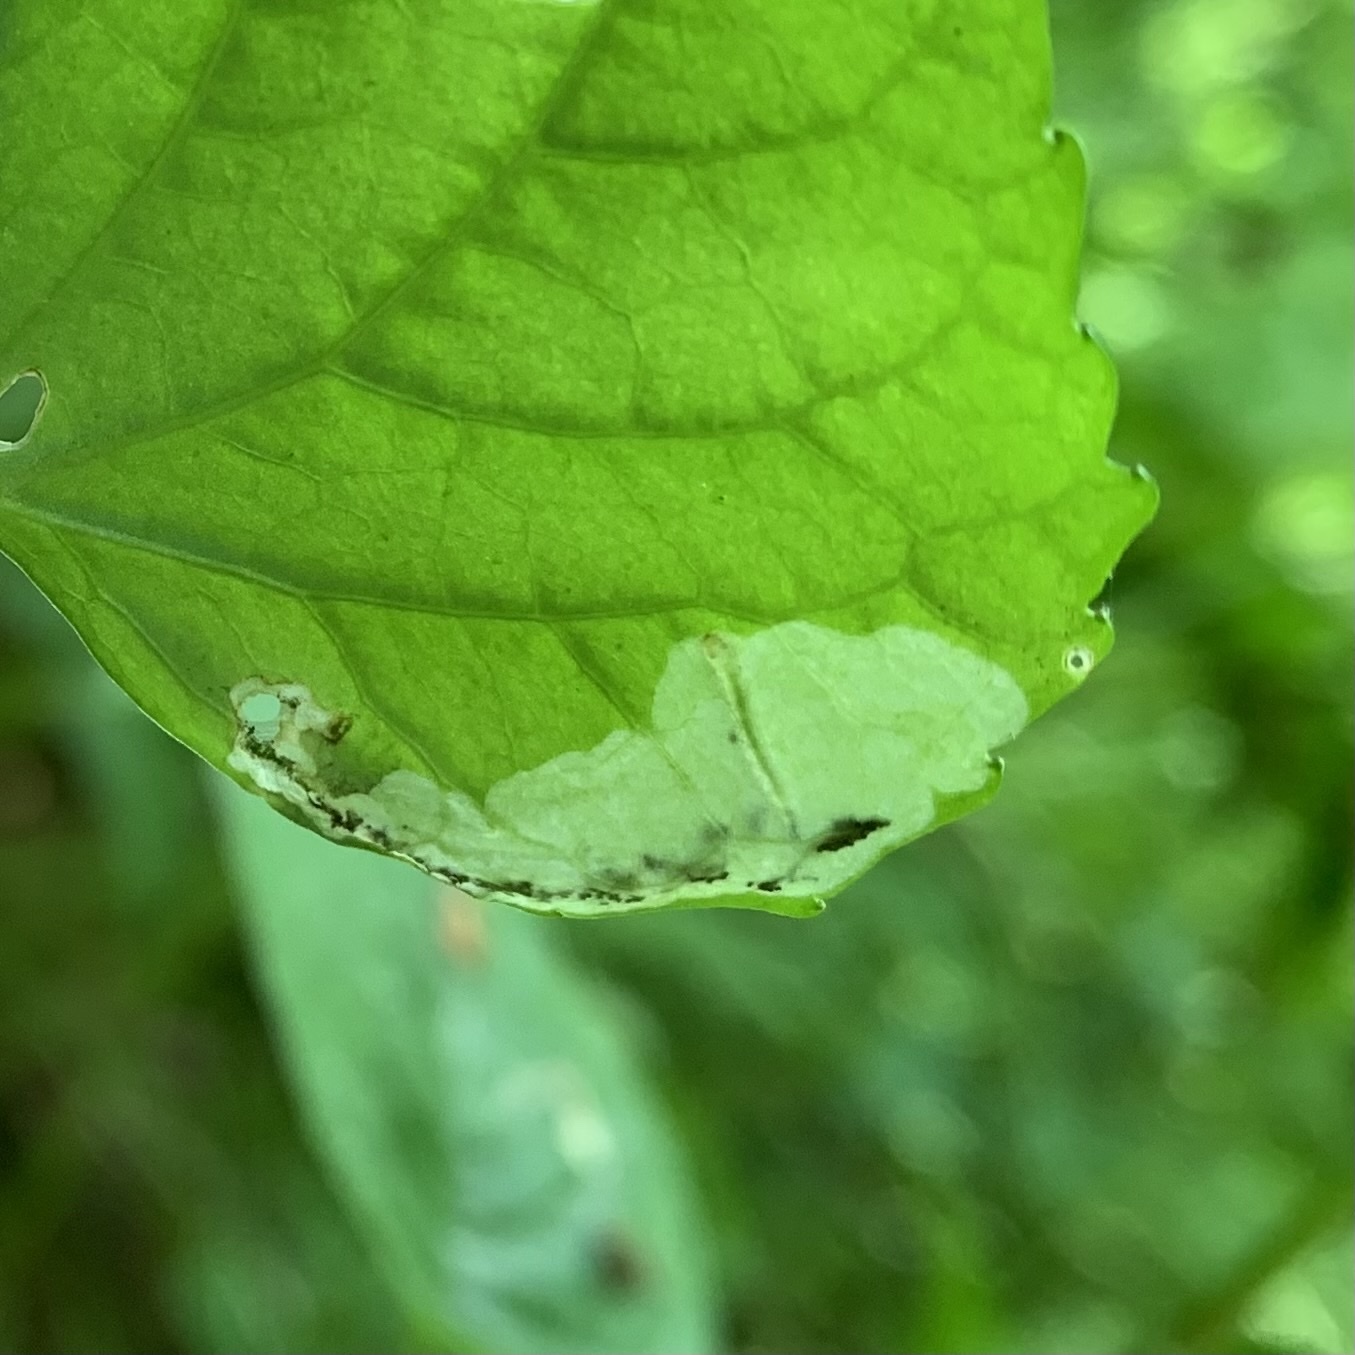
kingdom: Animalia
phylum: Arthropoda
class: Insecta
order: Hymenoptera
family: Tenthredinidae
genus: Nefusa
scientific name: Nefusa ambigua
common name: Violet leafmining sawfly
